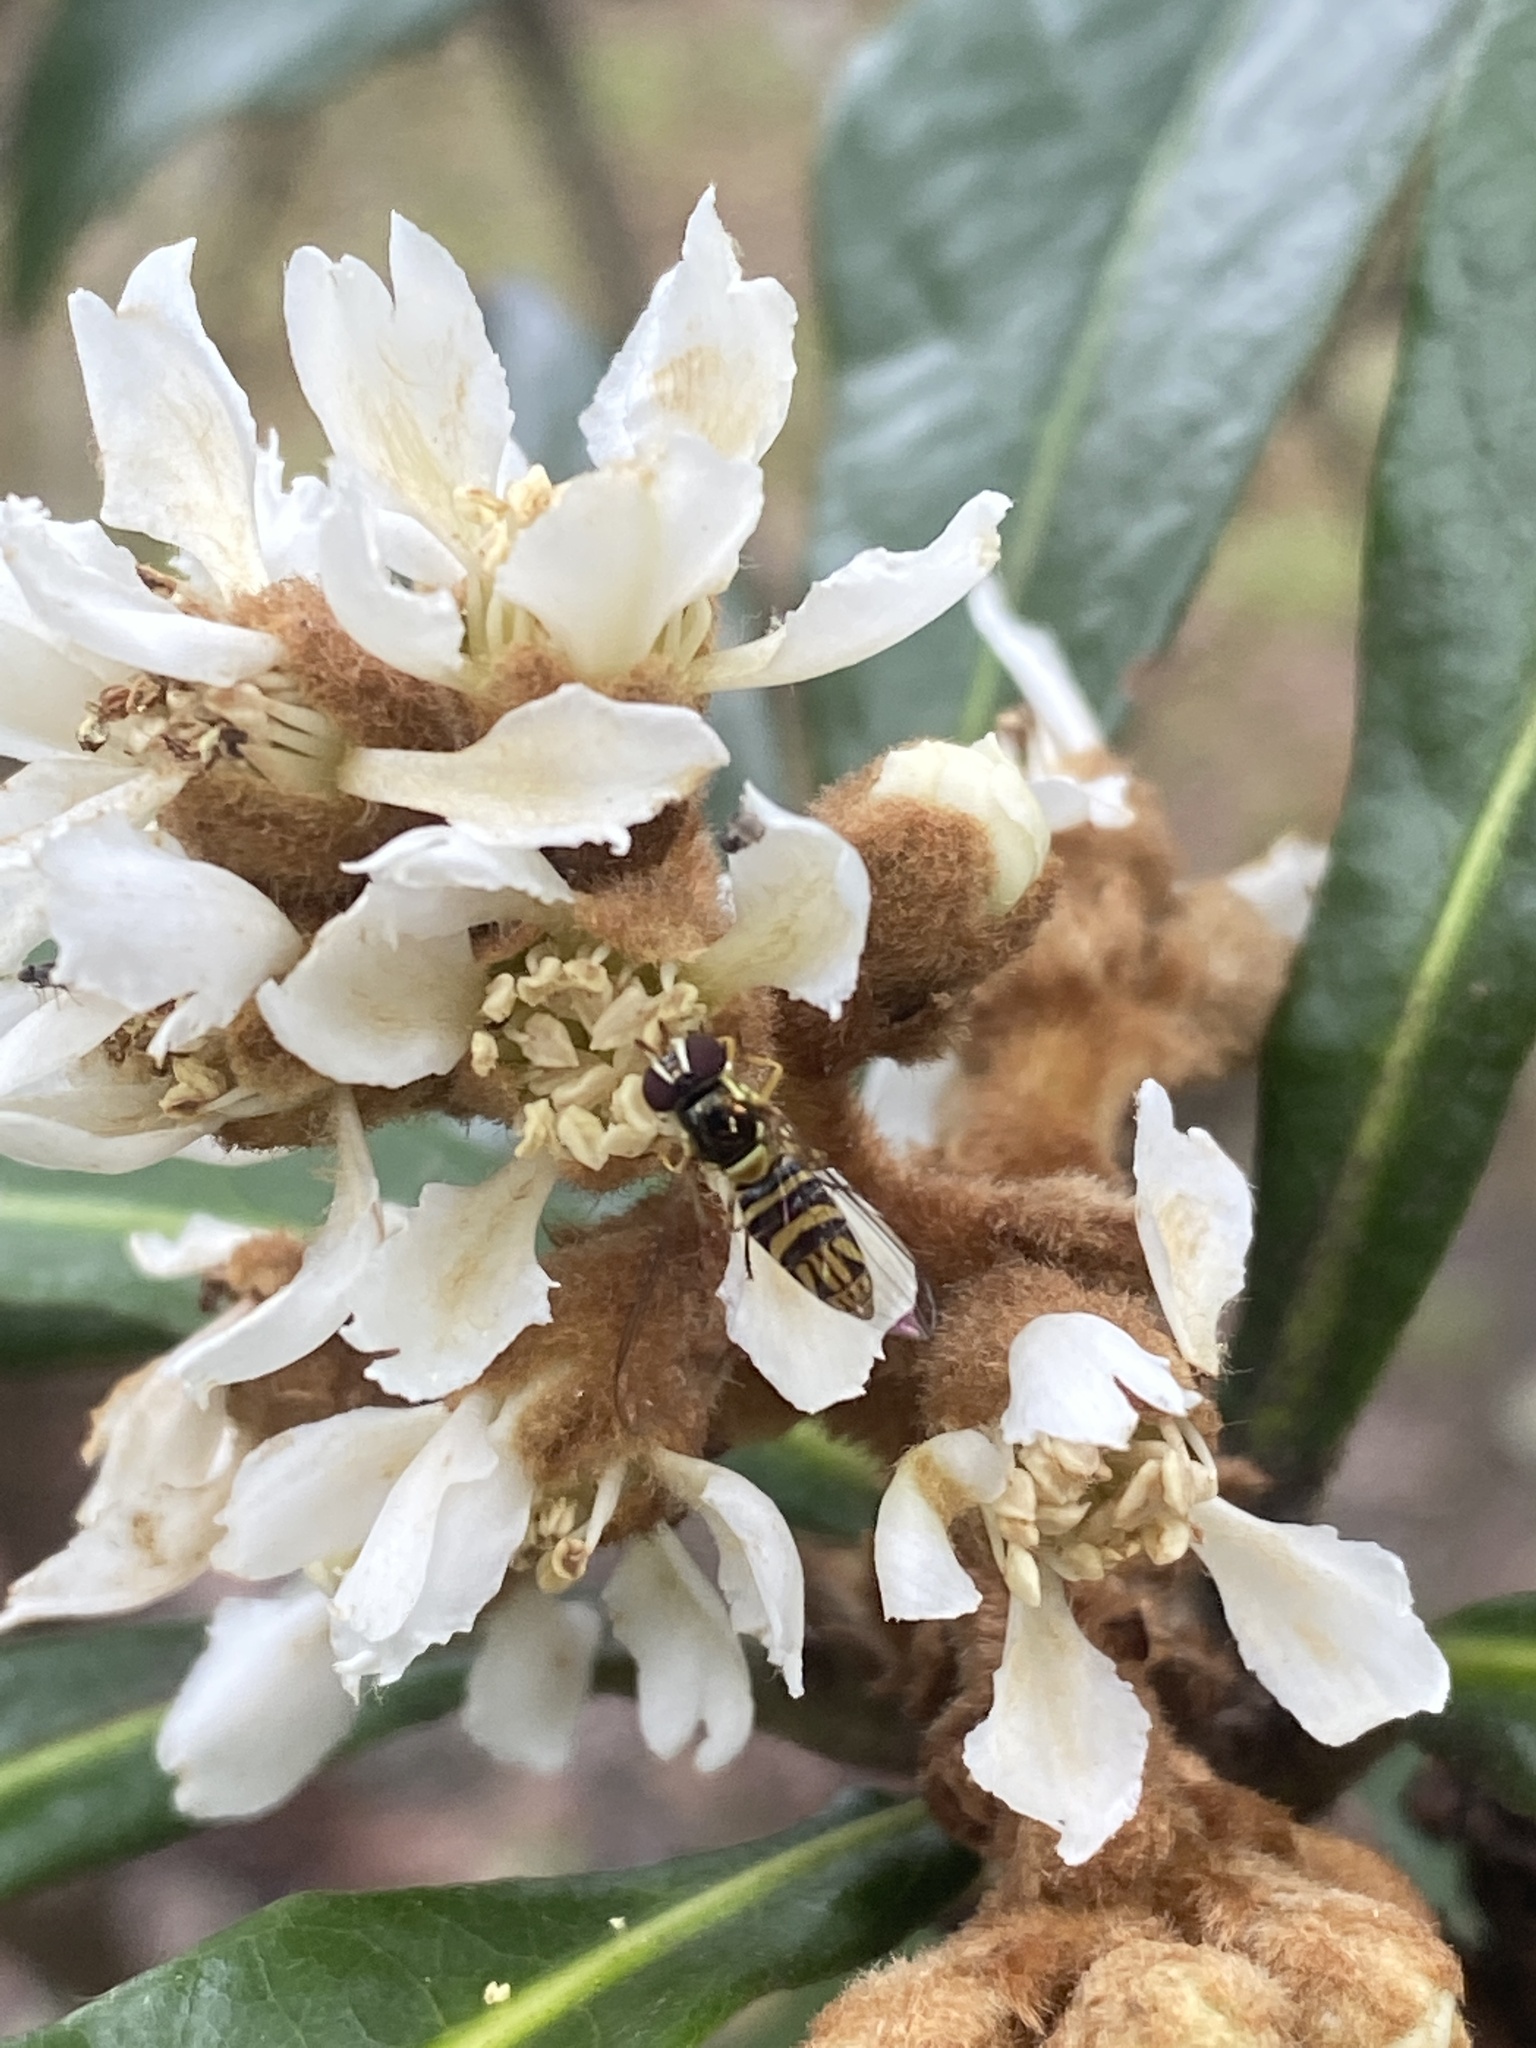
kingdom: Animalia
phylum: Arthropoda
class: Insecta
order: Diptera
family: Syrphidae
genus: Allograpta
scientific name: Allograpta obliqua
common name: Common oblique syrphid
